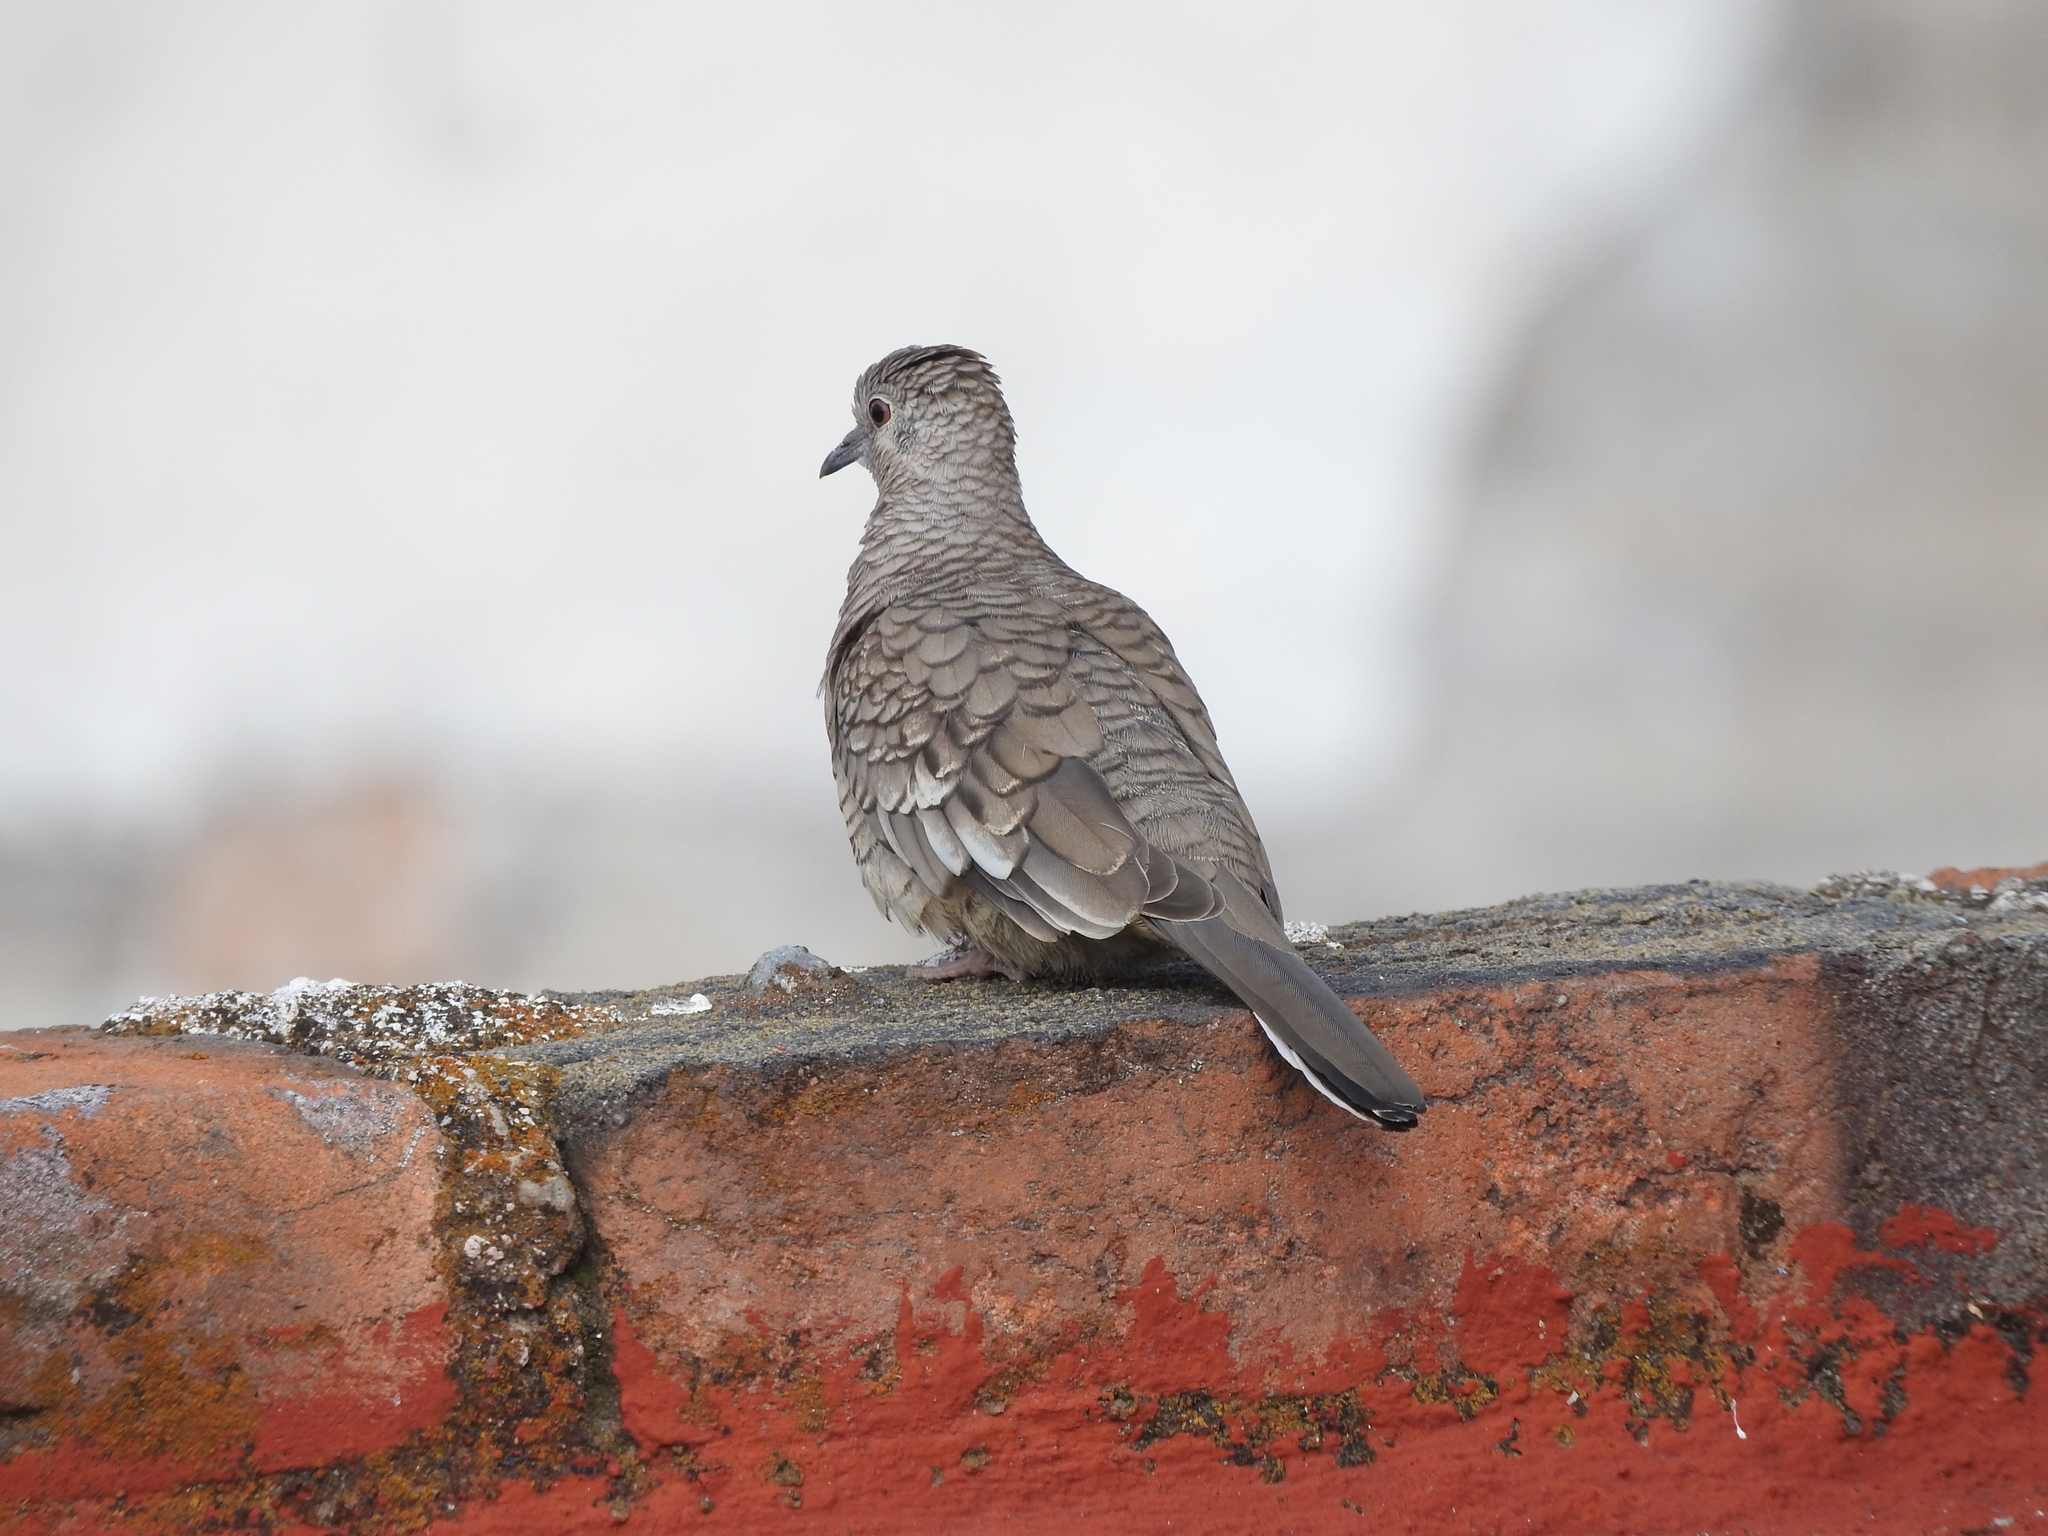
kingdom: Animalia
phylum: Chordata
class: Aves
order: Columbiformes
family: Columbidae
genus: Columbina
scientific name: Columbina inca
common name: Inca dove
